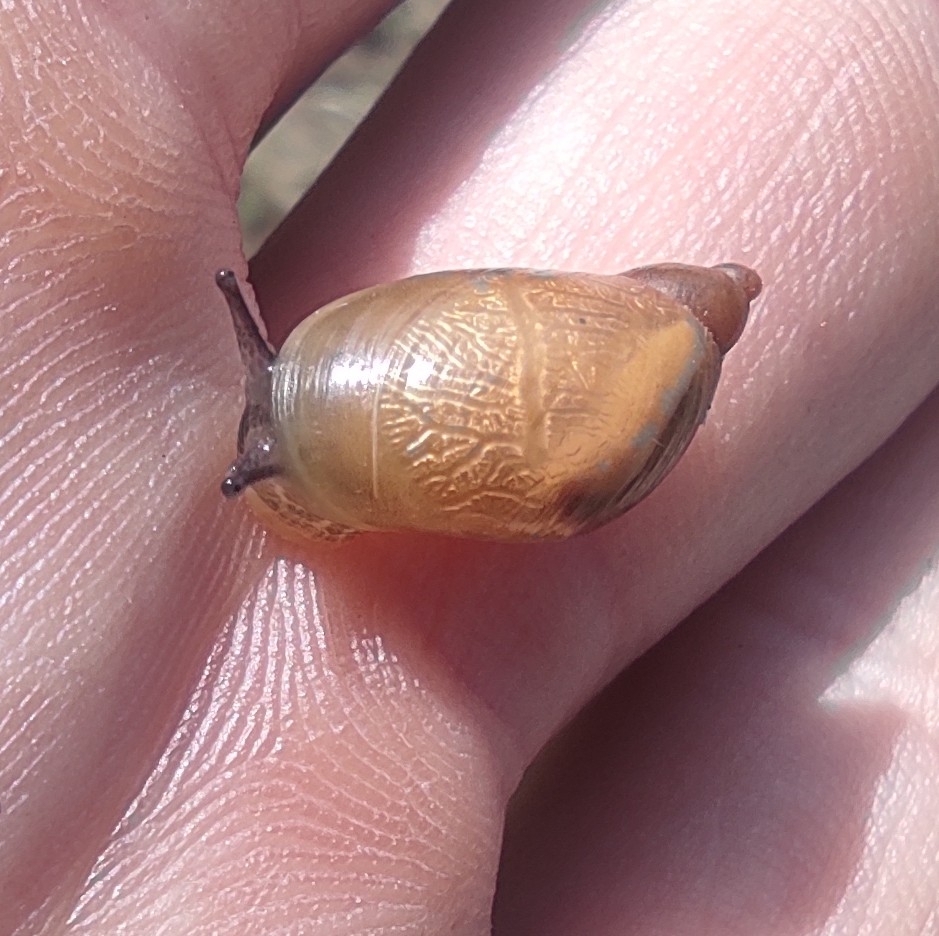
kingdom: Animalia
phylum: Mollusca
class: Gastropoda
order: Stylommatophora
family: Succineidae
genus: Succinea
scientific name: Succinea putris
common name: European ambersnail
